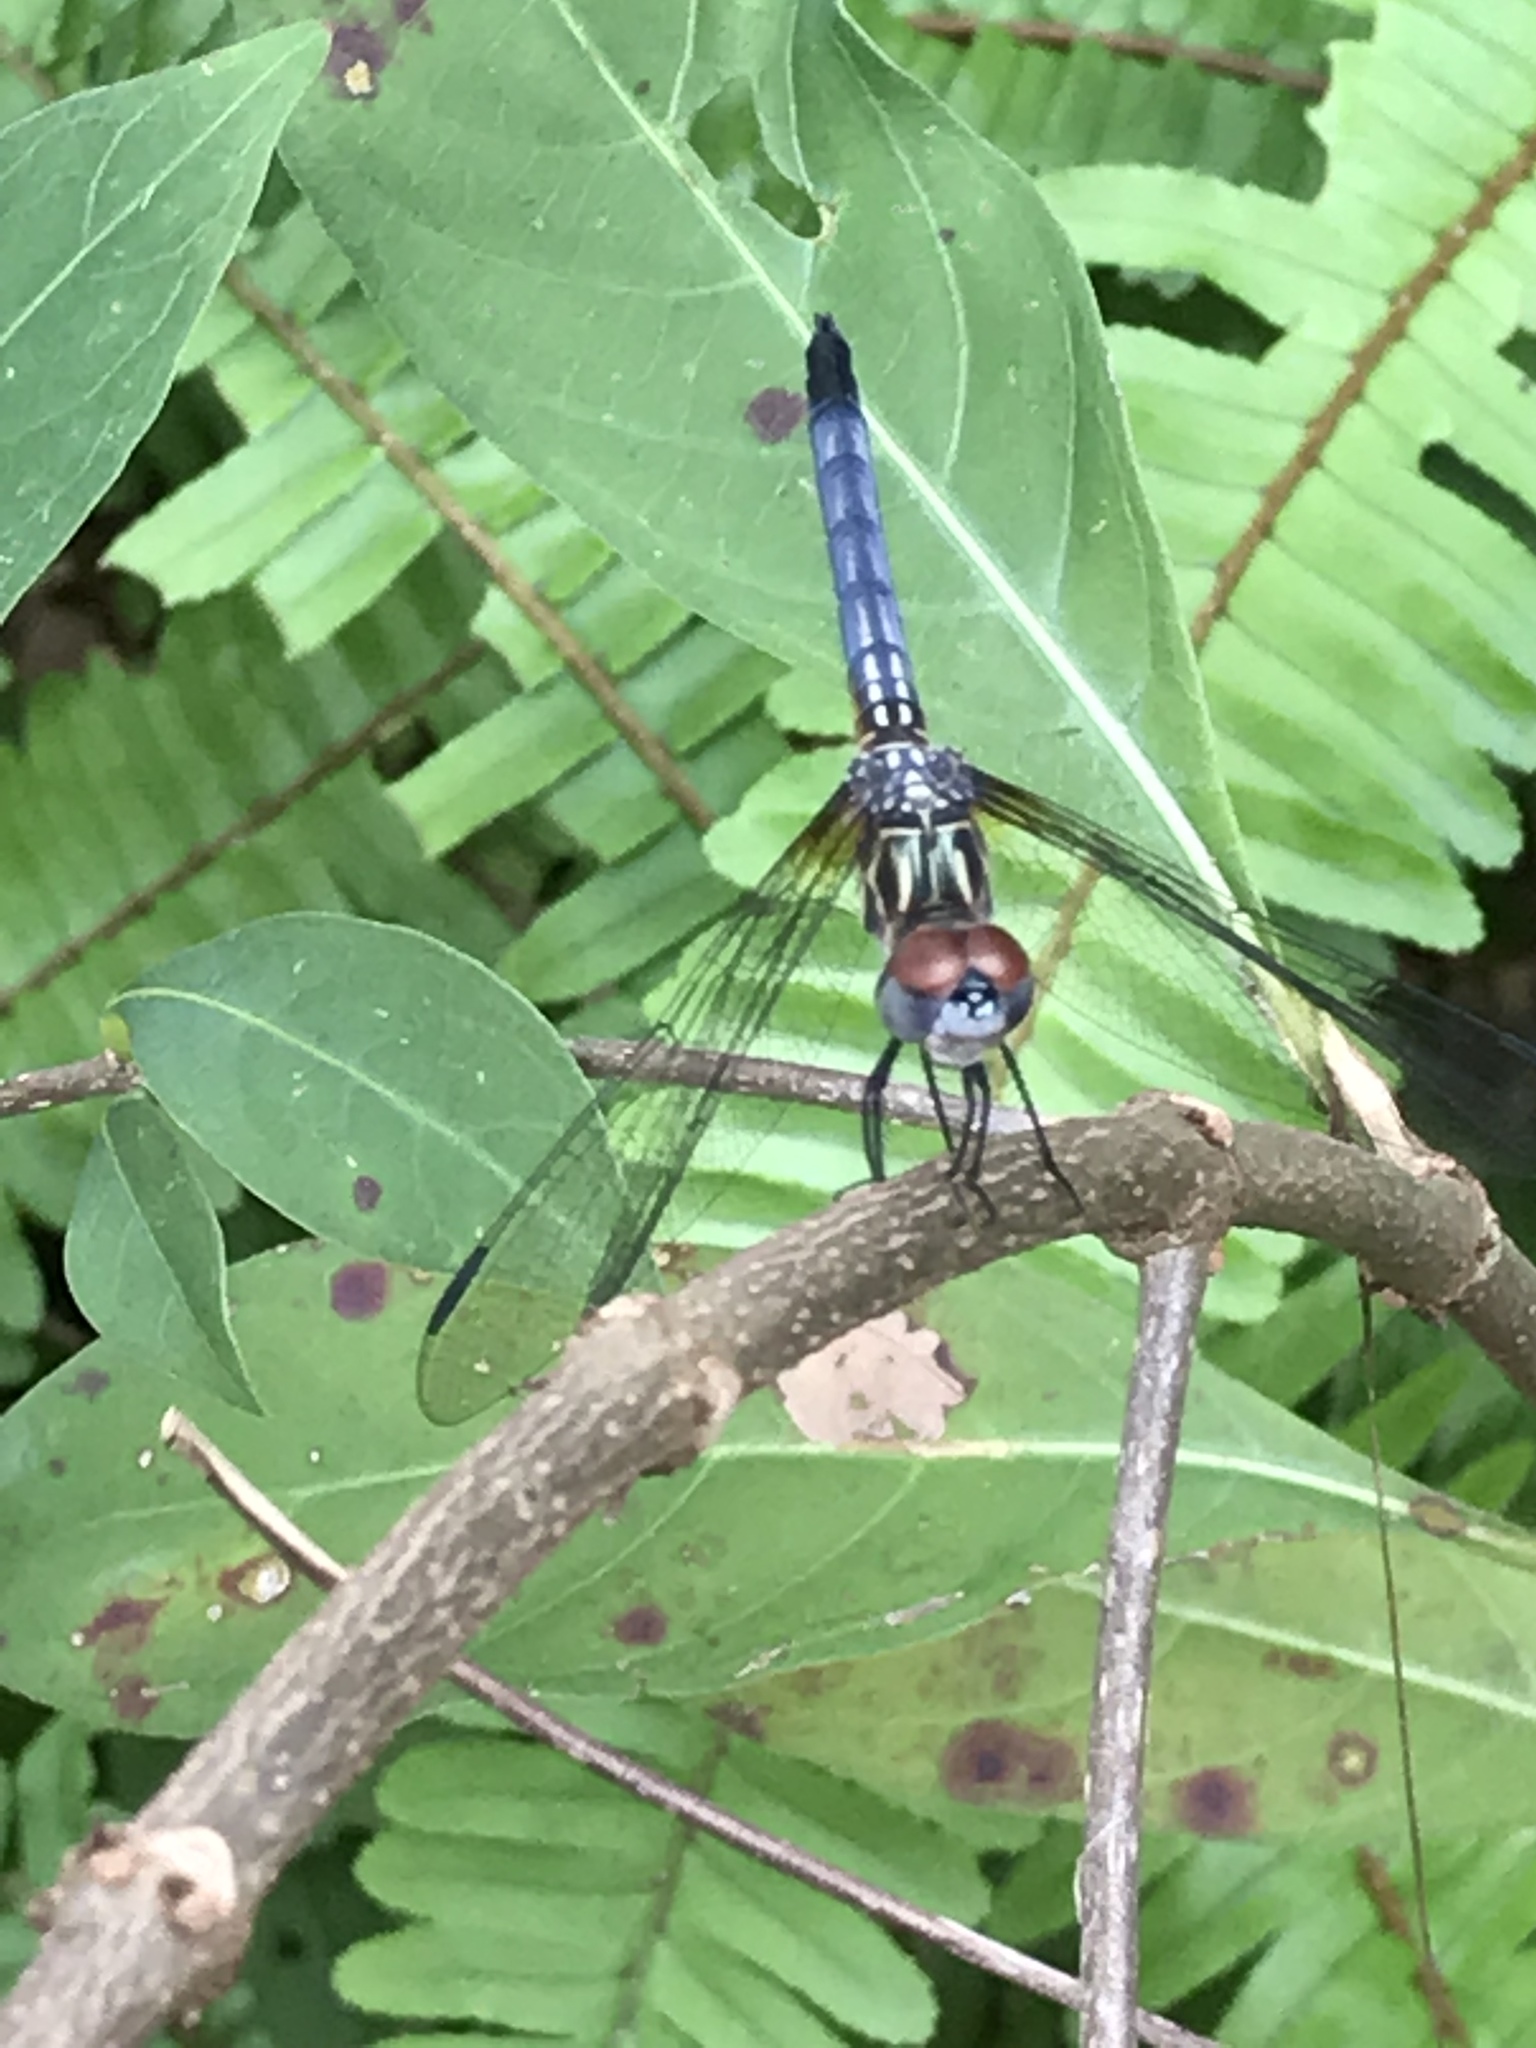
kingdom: Animalia
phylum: Arthropoda
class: Insecta
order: Odonata
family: Libellulidae
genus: Pachydiplax
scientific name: Pachydiplax longipennis
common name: Blue dasher
